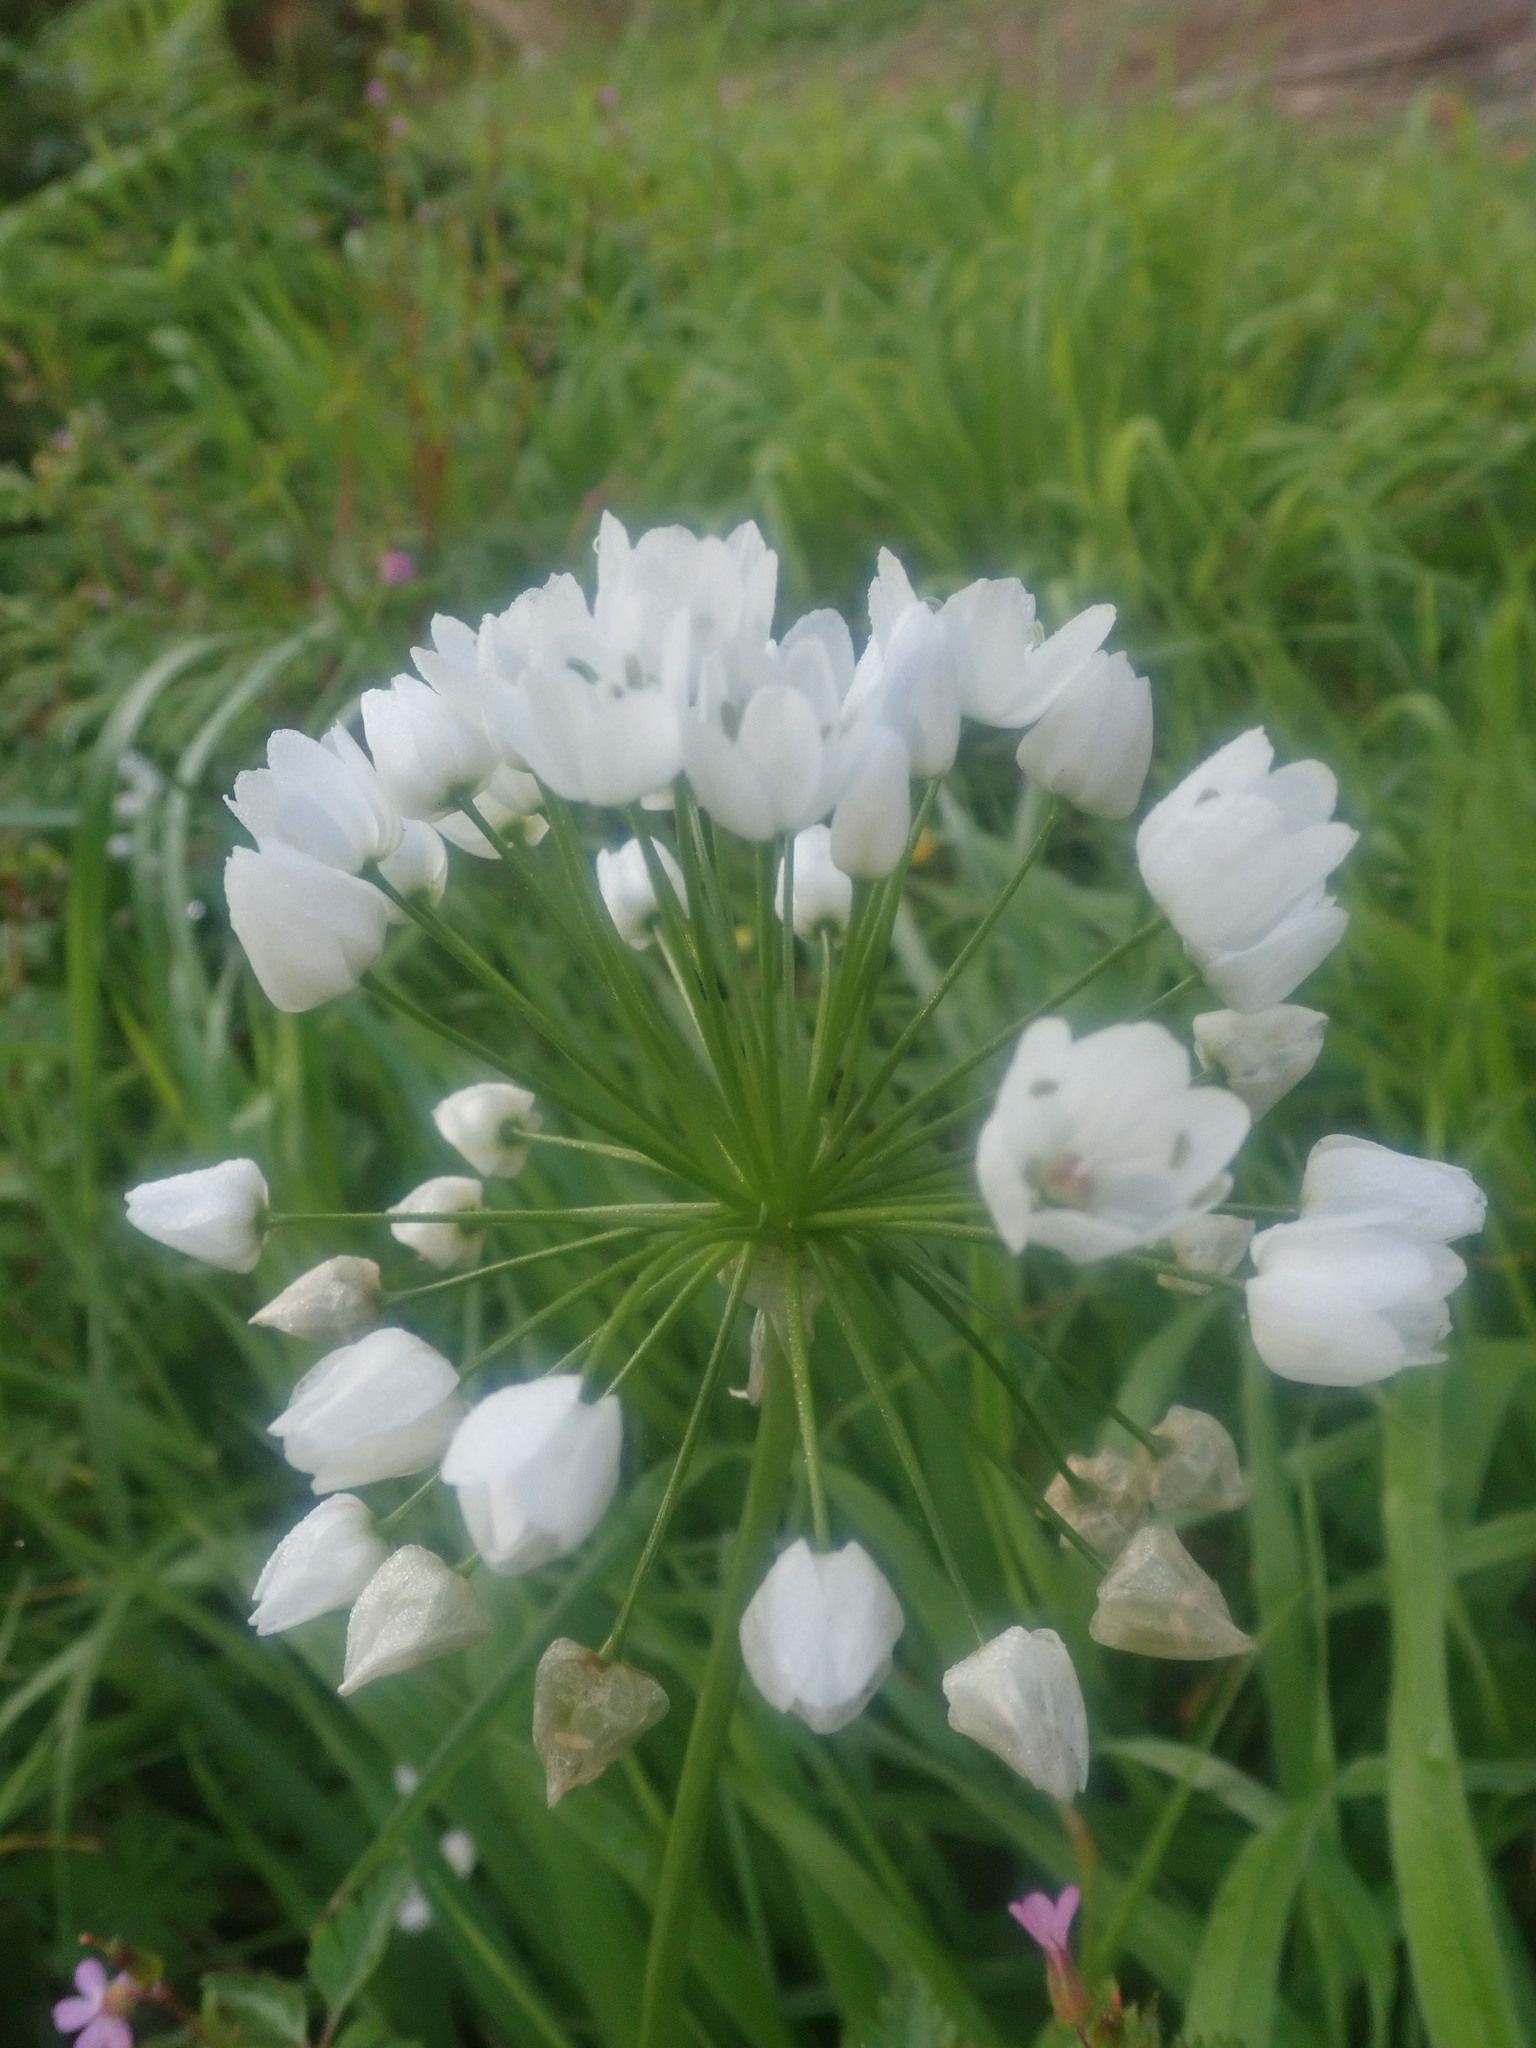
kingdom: Plantae
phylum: Tracheophyta
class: Liliopsida
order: Asparagales
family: Amaryllidaceae
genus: Allium
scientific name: Allium neapolitanum
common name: Neapolitan garlic
